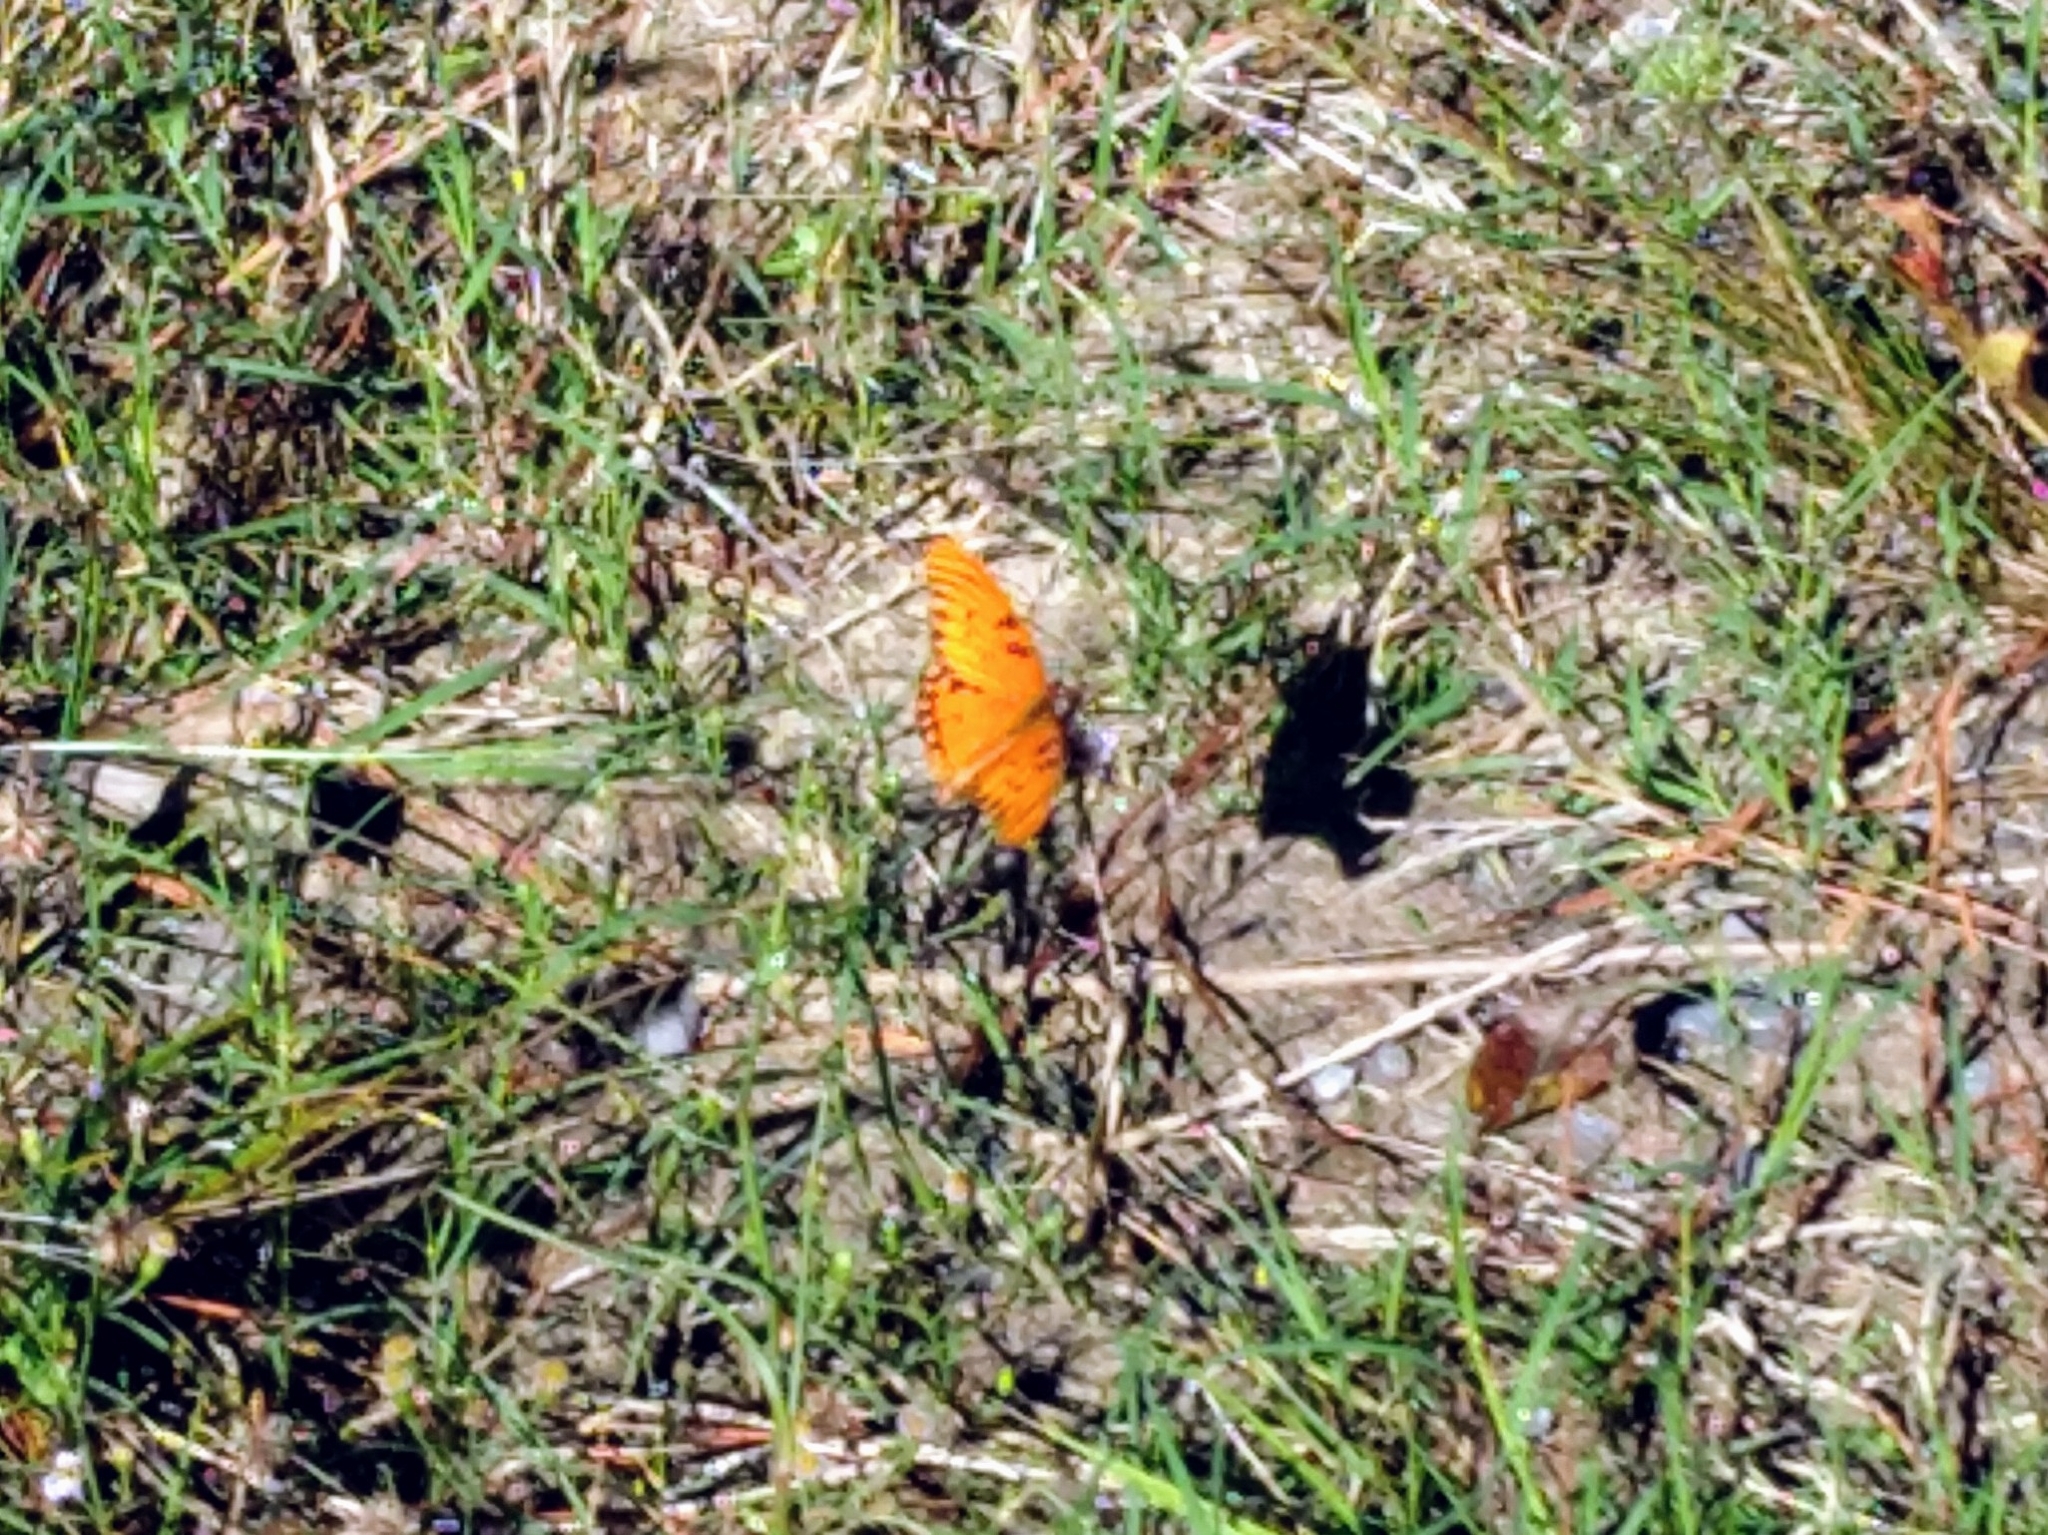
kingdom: Animalia
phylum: Arthropoda
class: Insecta
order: Lepidoptera
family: Nymphalidae
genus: Dione
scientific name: Dione vanillae
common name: Gulf fritillary
